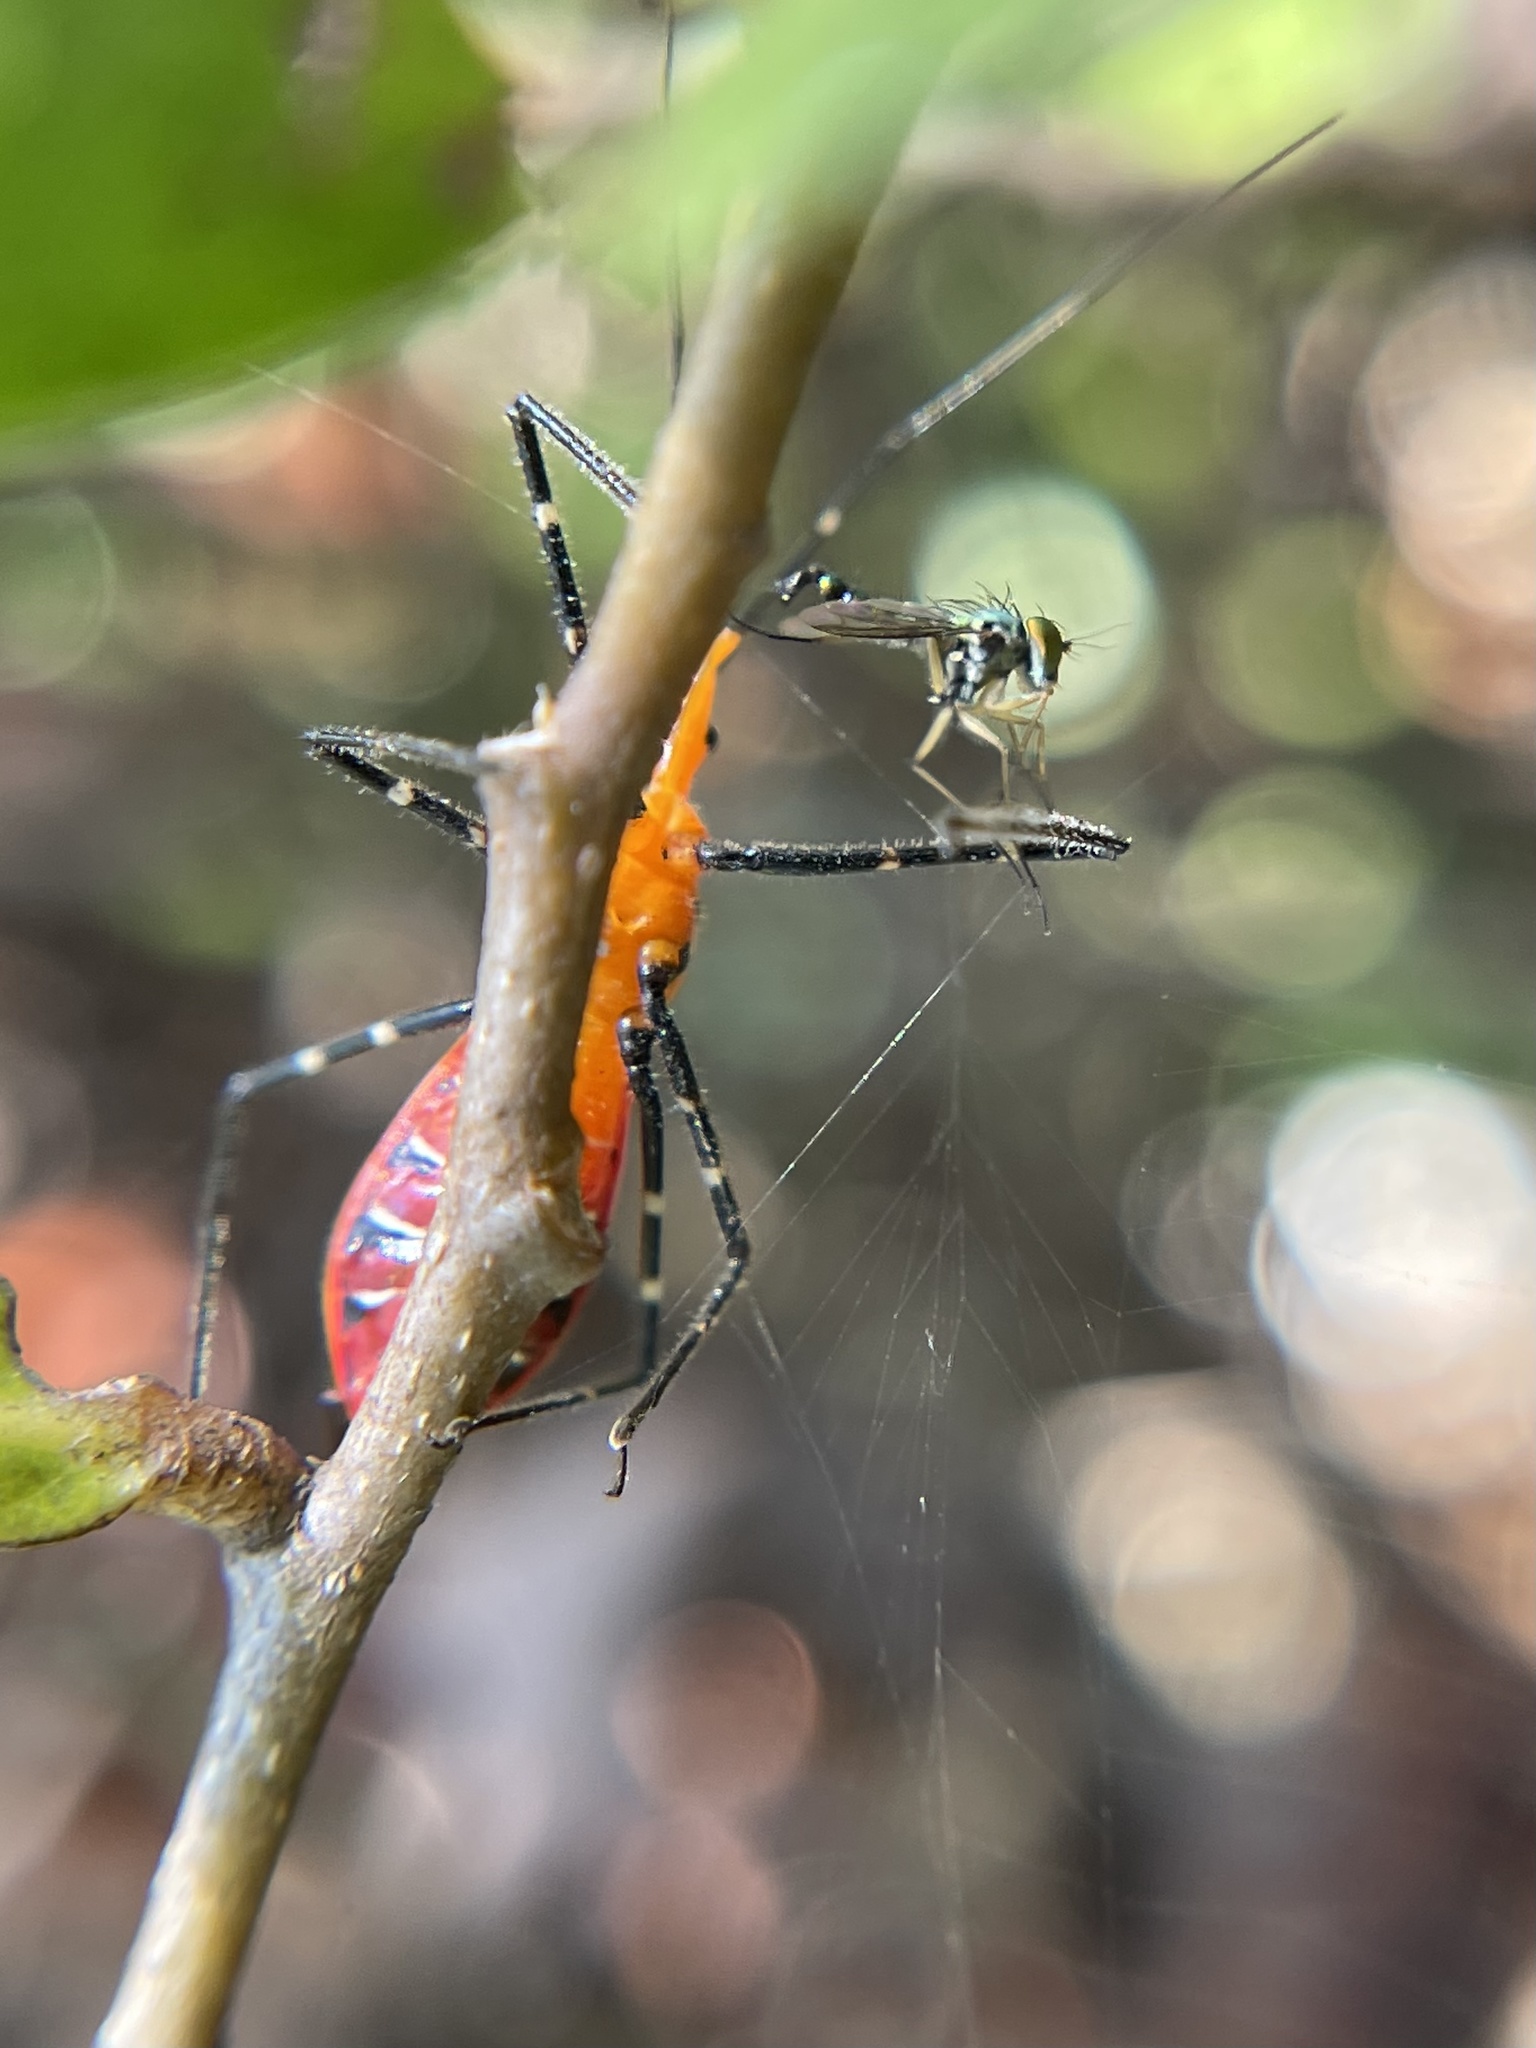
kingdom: Animalia
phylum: Arthropoda
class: Insecta
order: Hemiptera
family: Reduviidae
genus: Zelus
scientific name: Zelus longipes
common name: Milkweed assassin bug
